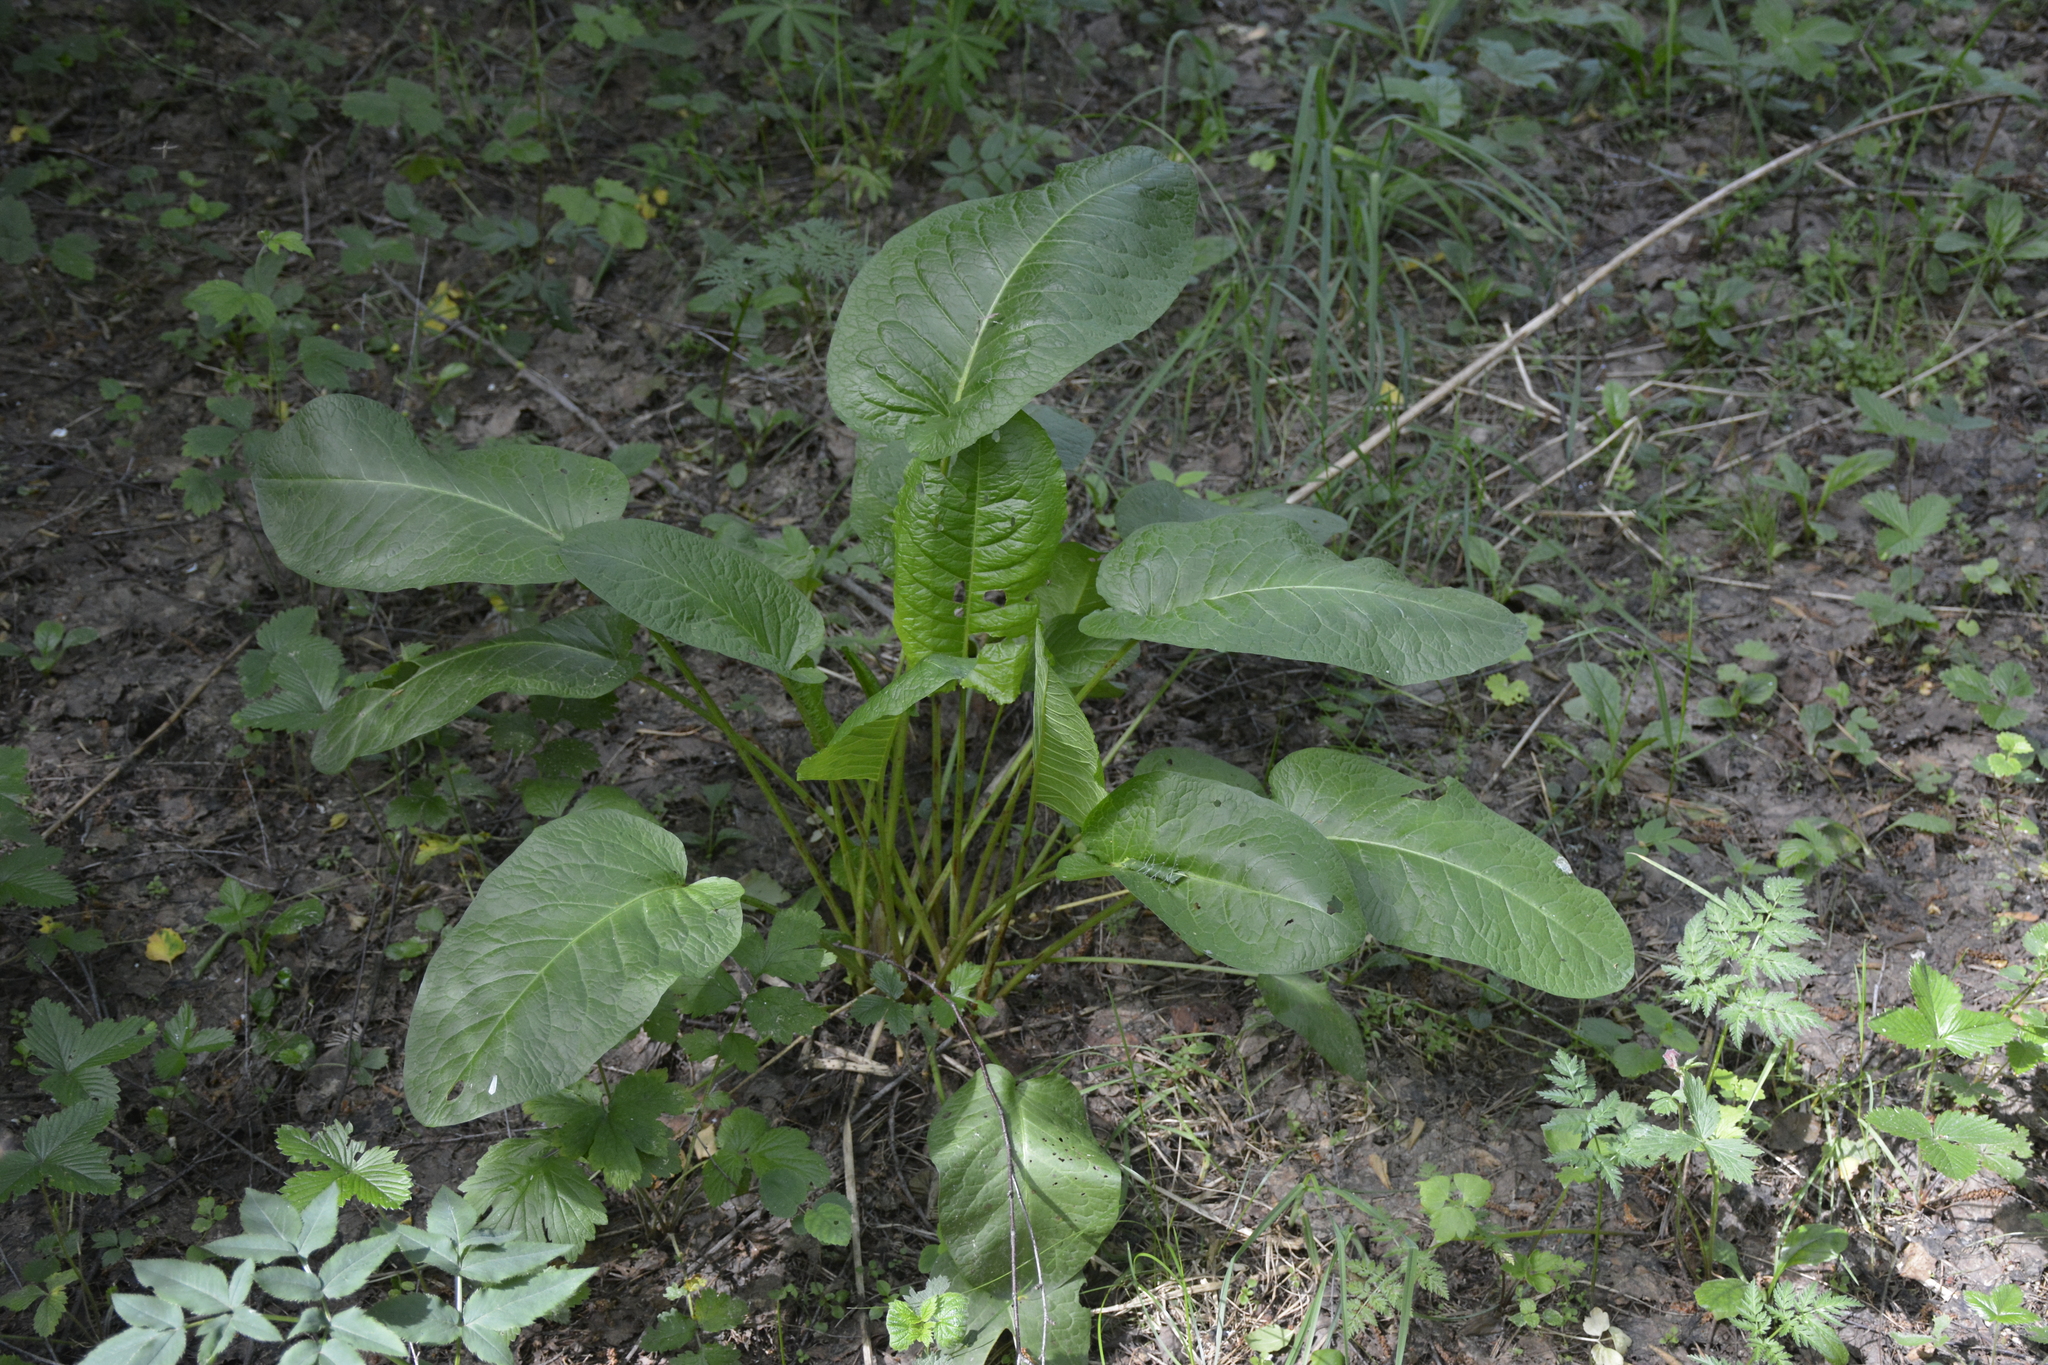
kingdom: Plantae
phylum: Tracheophyta
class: Magnoliopsida
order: Caryophyllales
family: Polygonaceae
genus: Rumex
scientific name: Rumex obtusifolius
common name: Bitter dock
